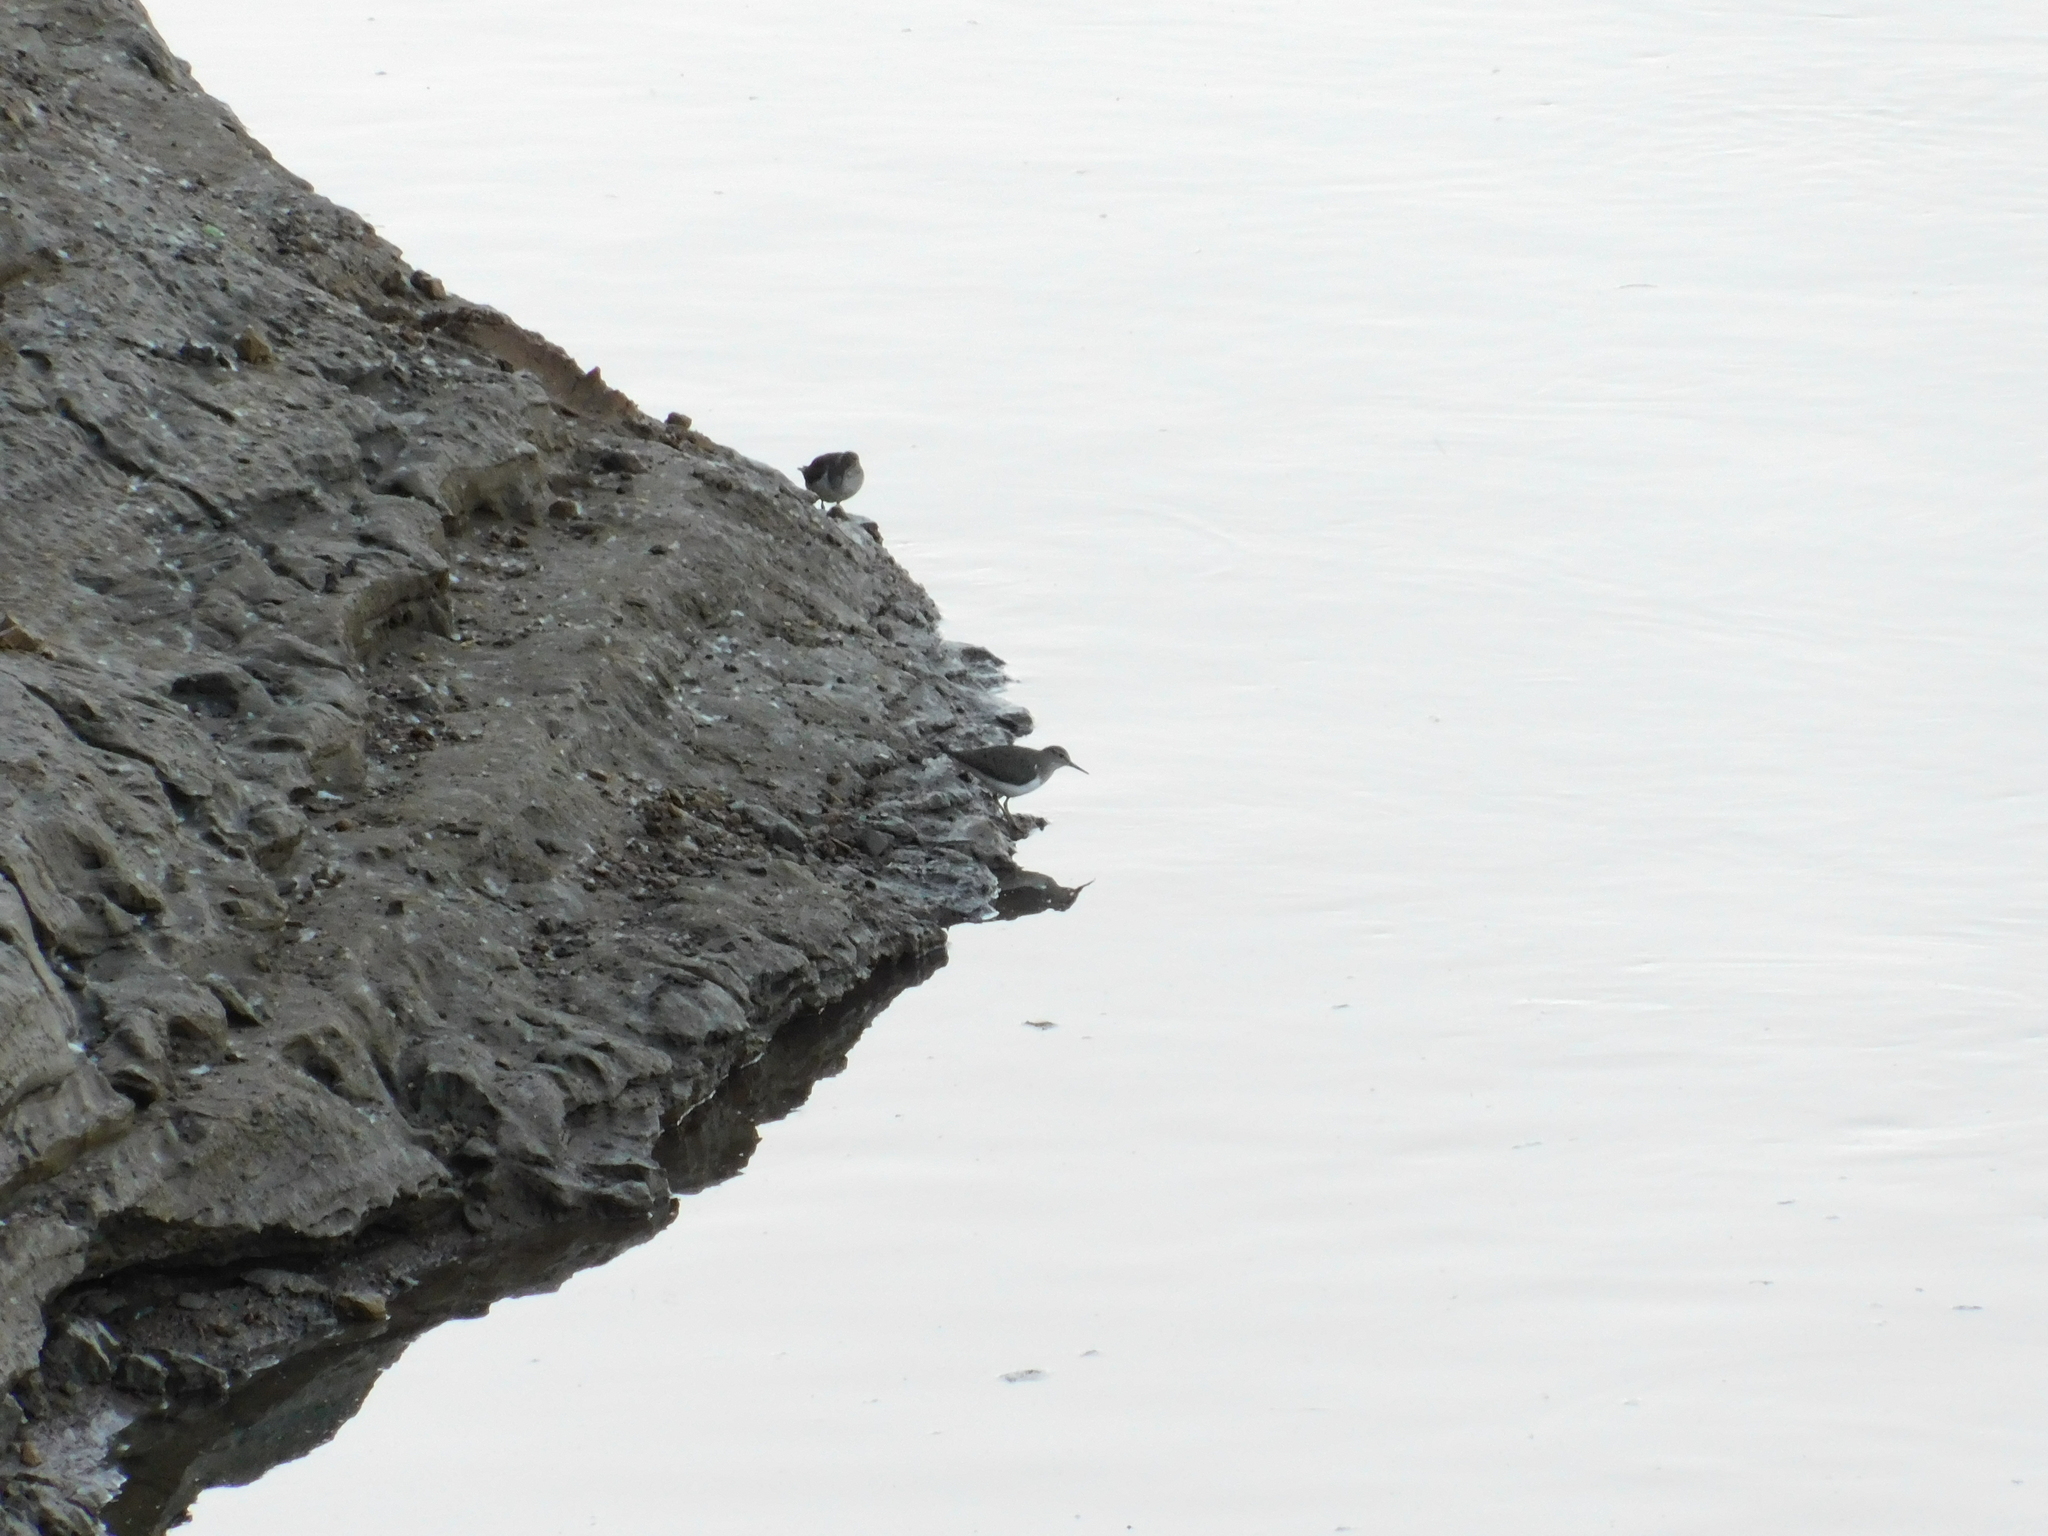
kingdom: Animalia
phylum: Chordata
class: Aves
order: Charadriiformes
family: Scolopacidae
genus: Actitis
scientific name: Actitis hypoleucos
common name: Common sandpiper
